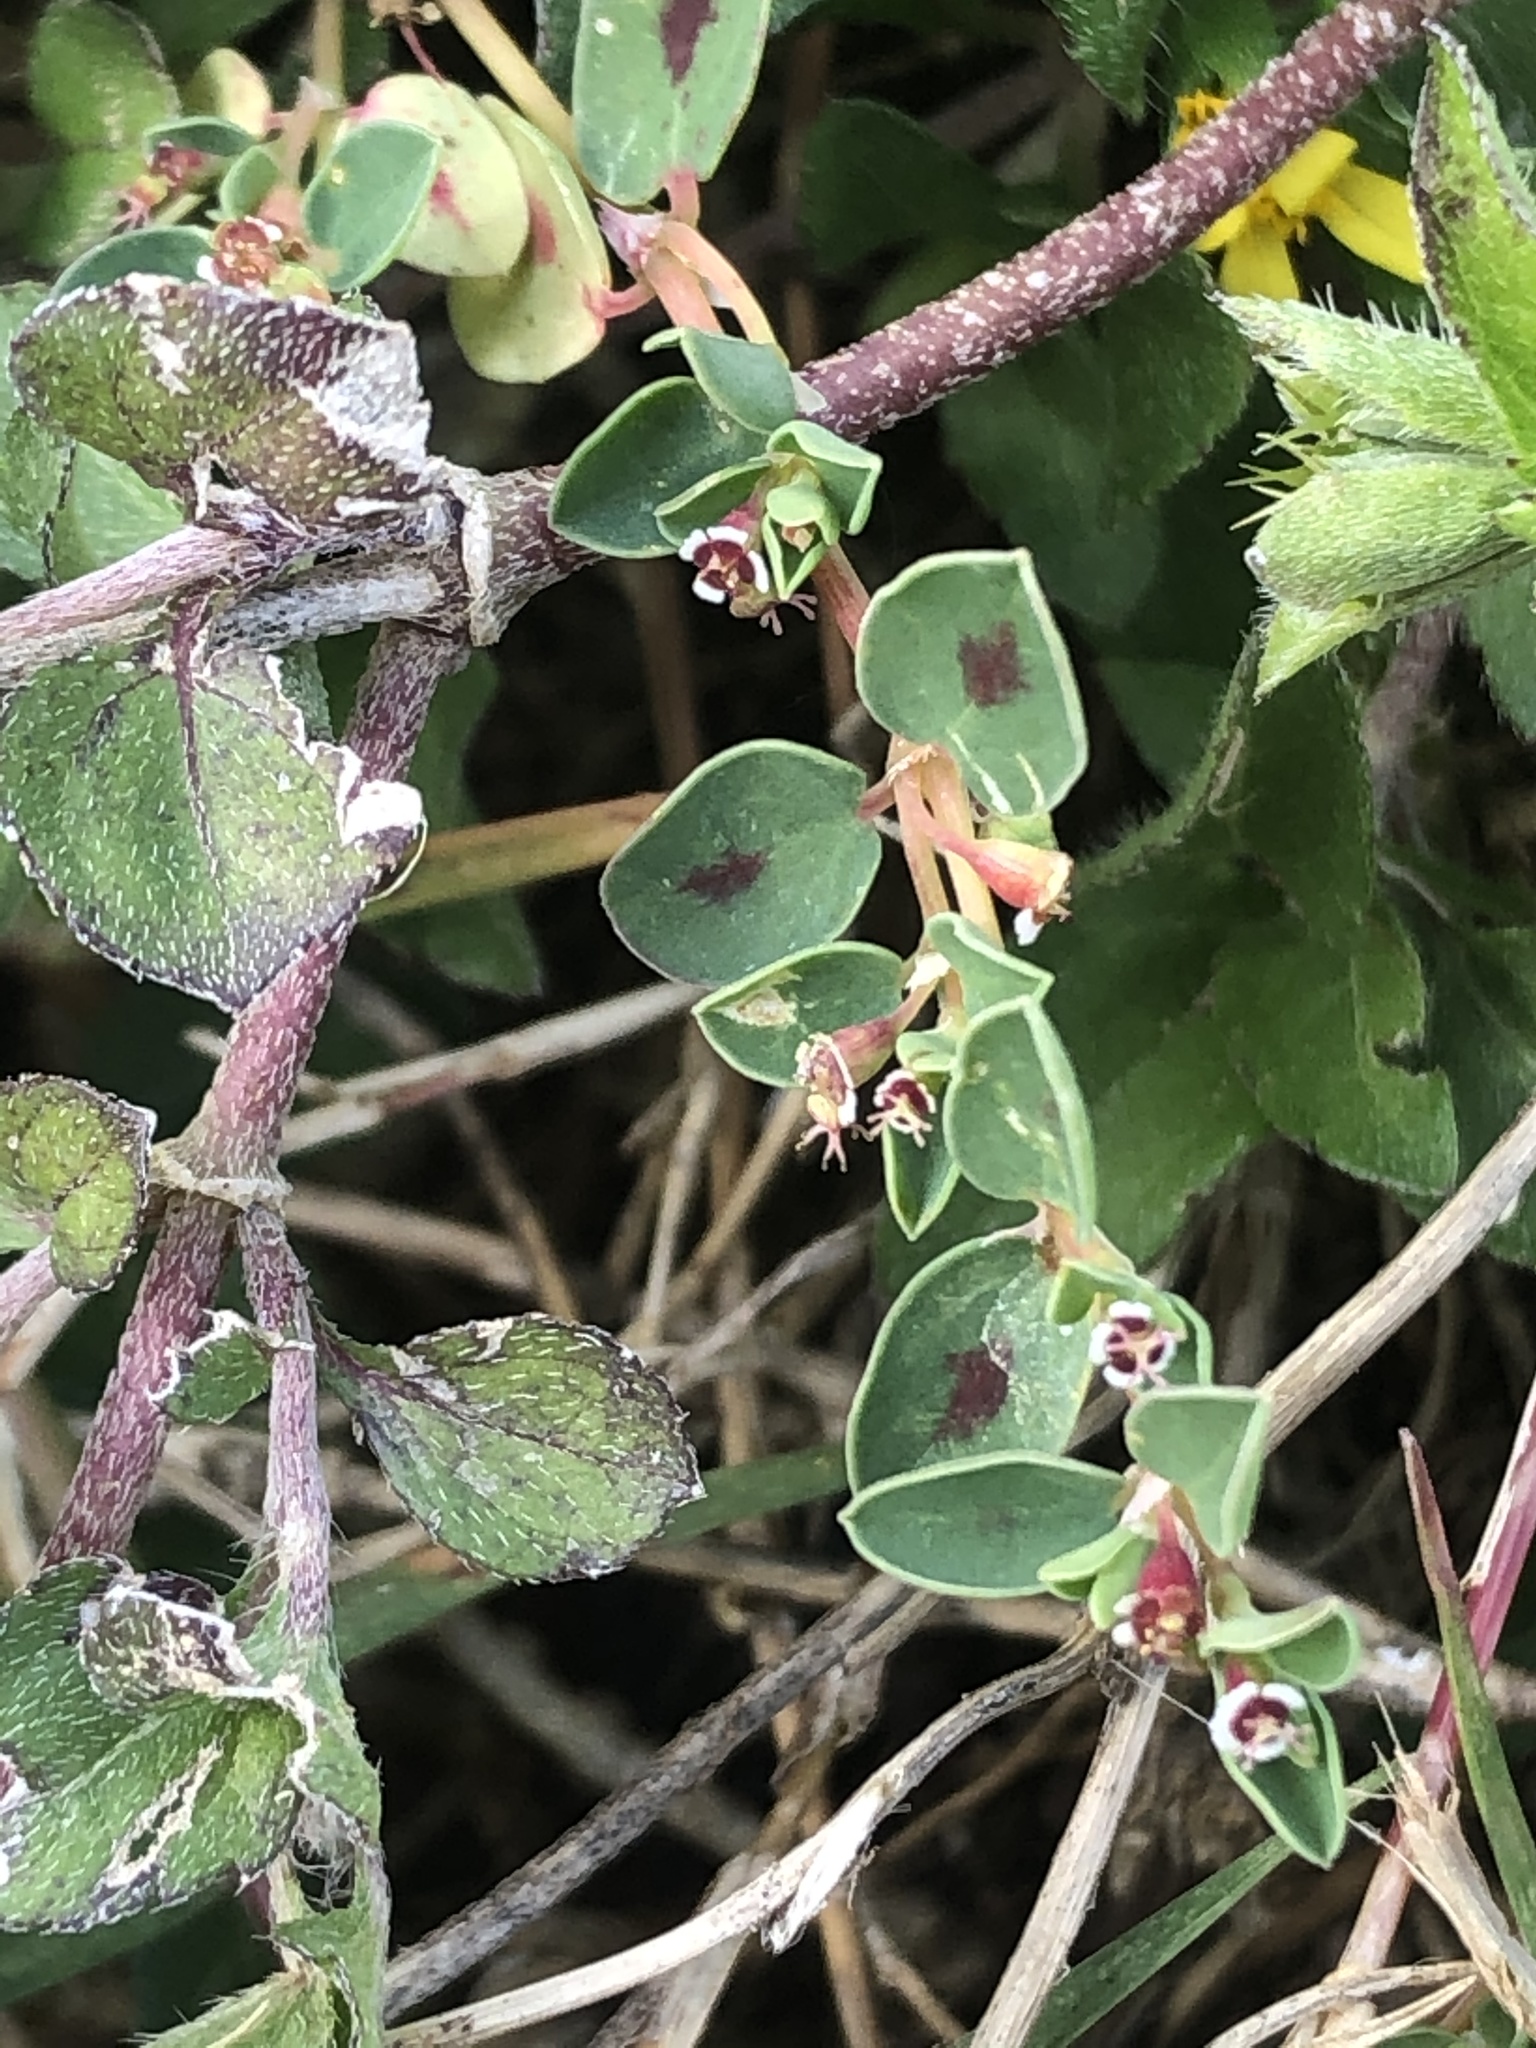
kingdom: Plantae
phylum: Tracheophyta
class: Magnoliopsida
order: Malpighiales
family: Euphorbiaceae
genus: Euphorbia
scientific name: Euphorbia albomarginata
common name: Whitemargin sandmat
